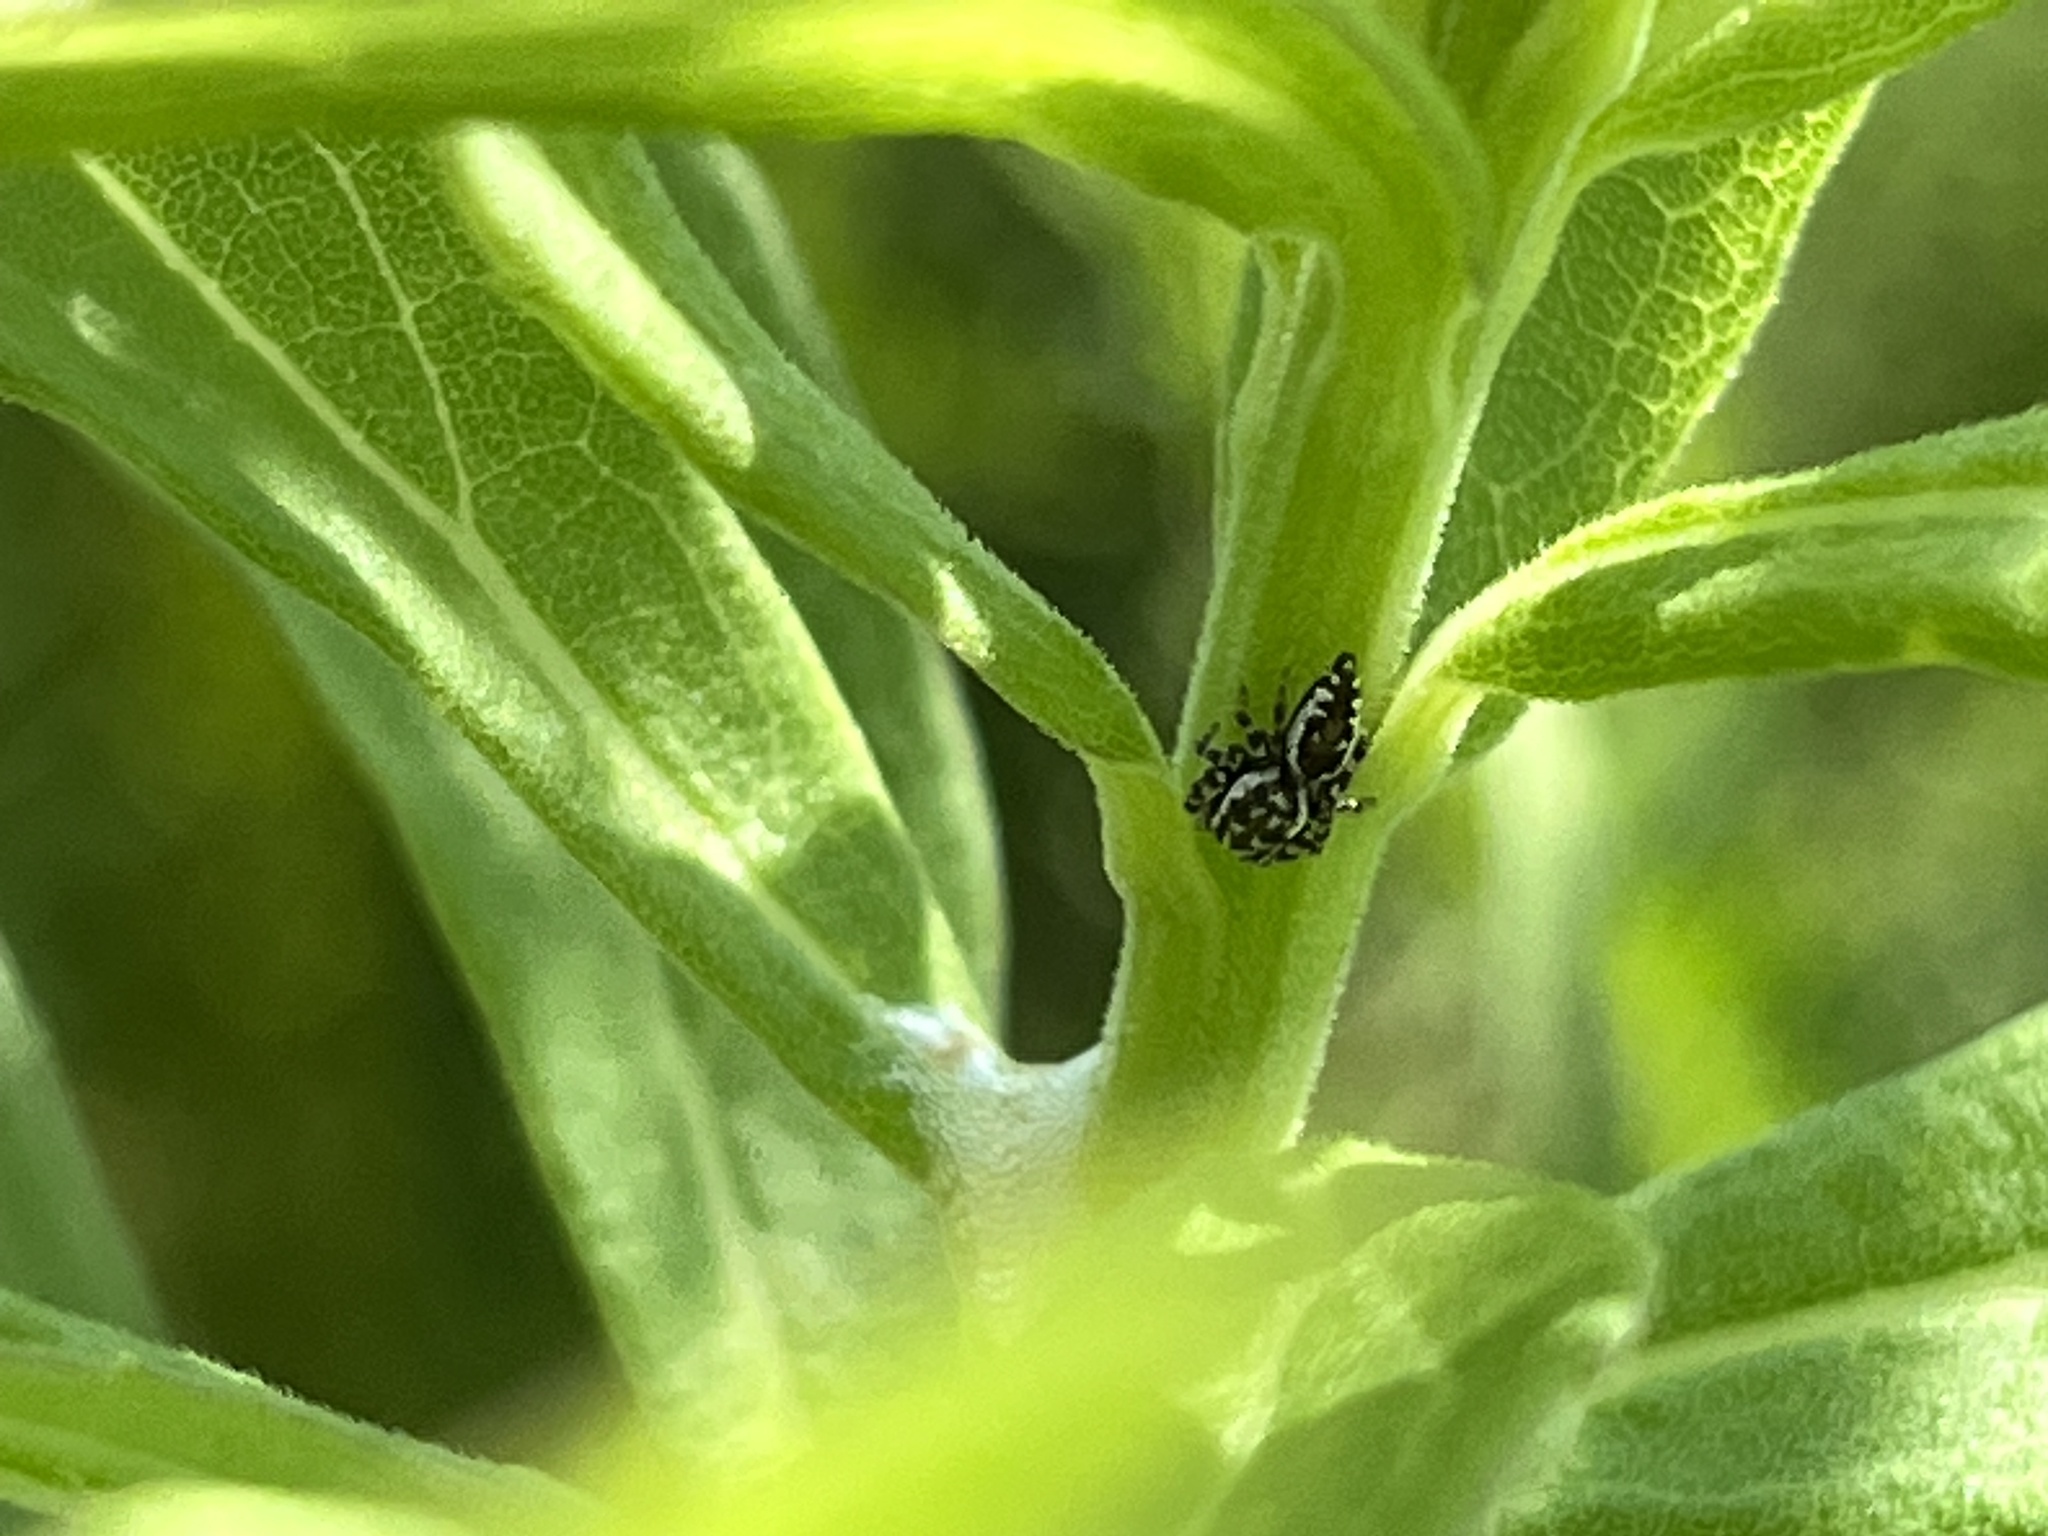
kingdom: Animalia
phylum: Arthropoda
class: Arachnida
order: Araneae
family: Salticidae
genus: Pelegrina
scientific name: Pelegrina galathea
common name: Jumping spiders
